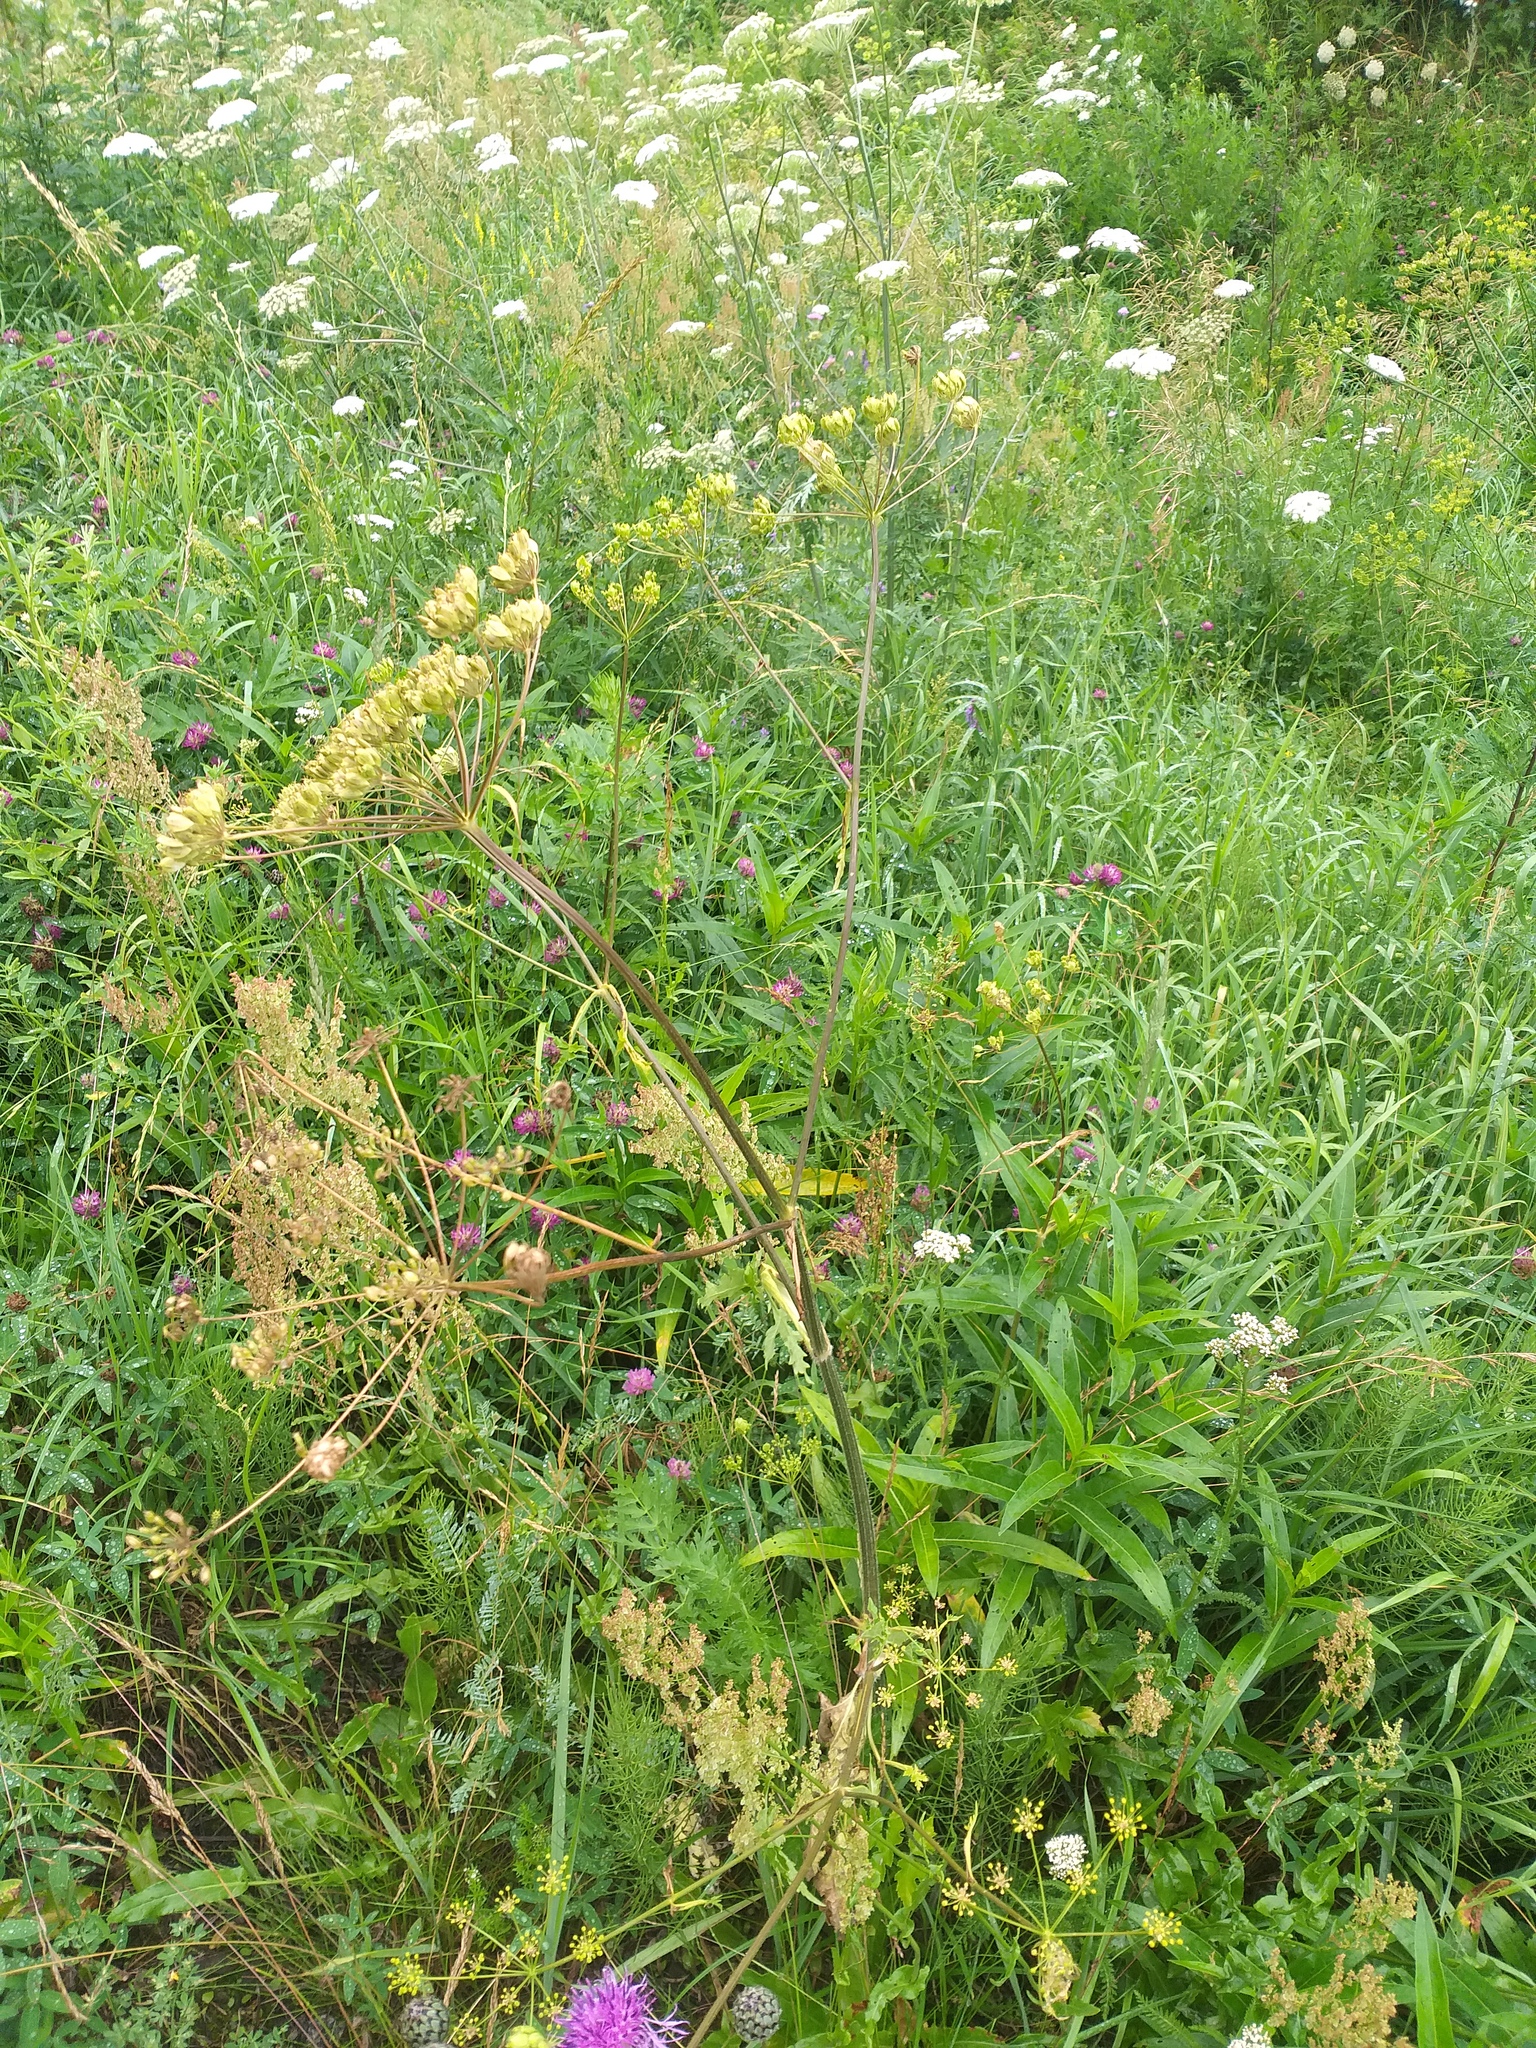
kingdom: Plantae
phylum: Tracheophyta
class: Magnoliopsida
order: Apiales
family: Apiaceae
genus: Heracleum
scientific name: Heracleum sphondylium
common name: Hogweed
